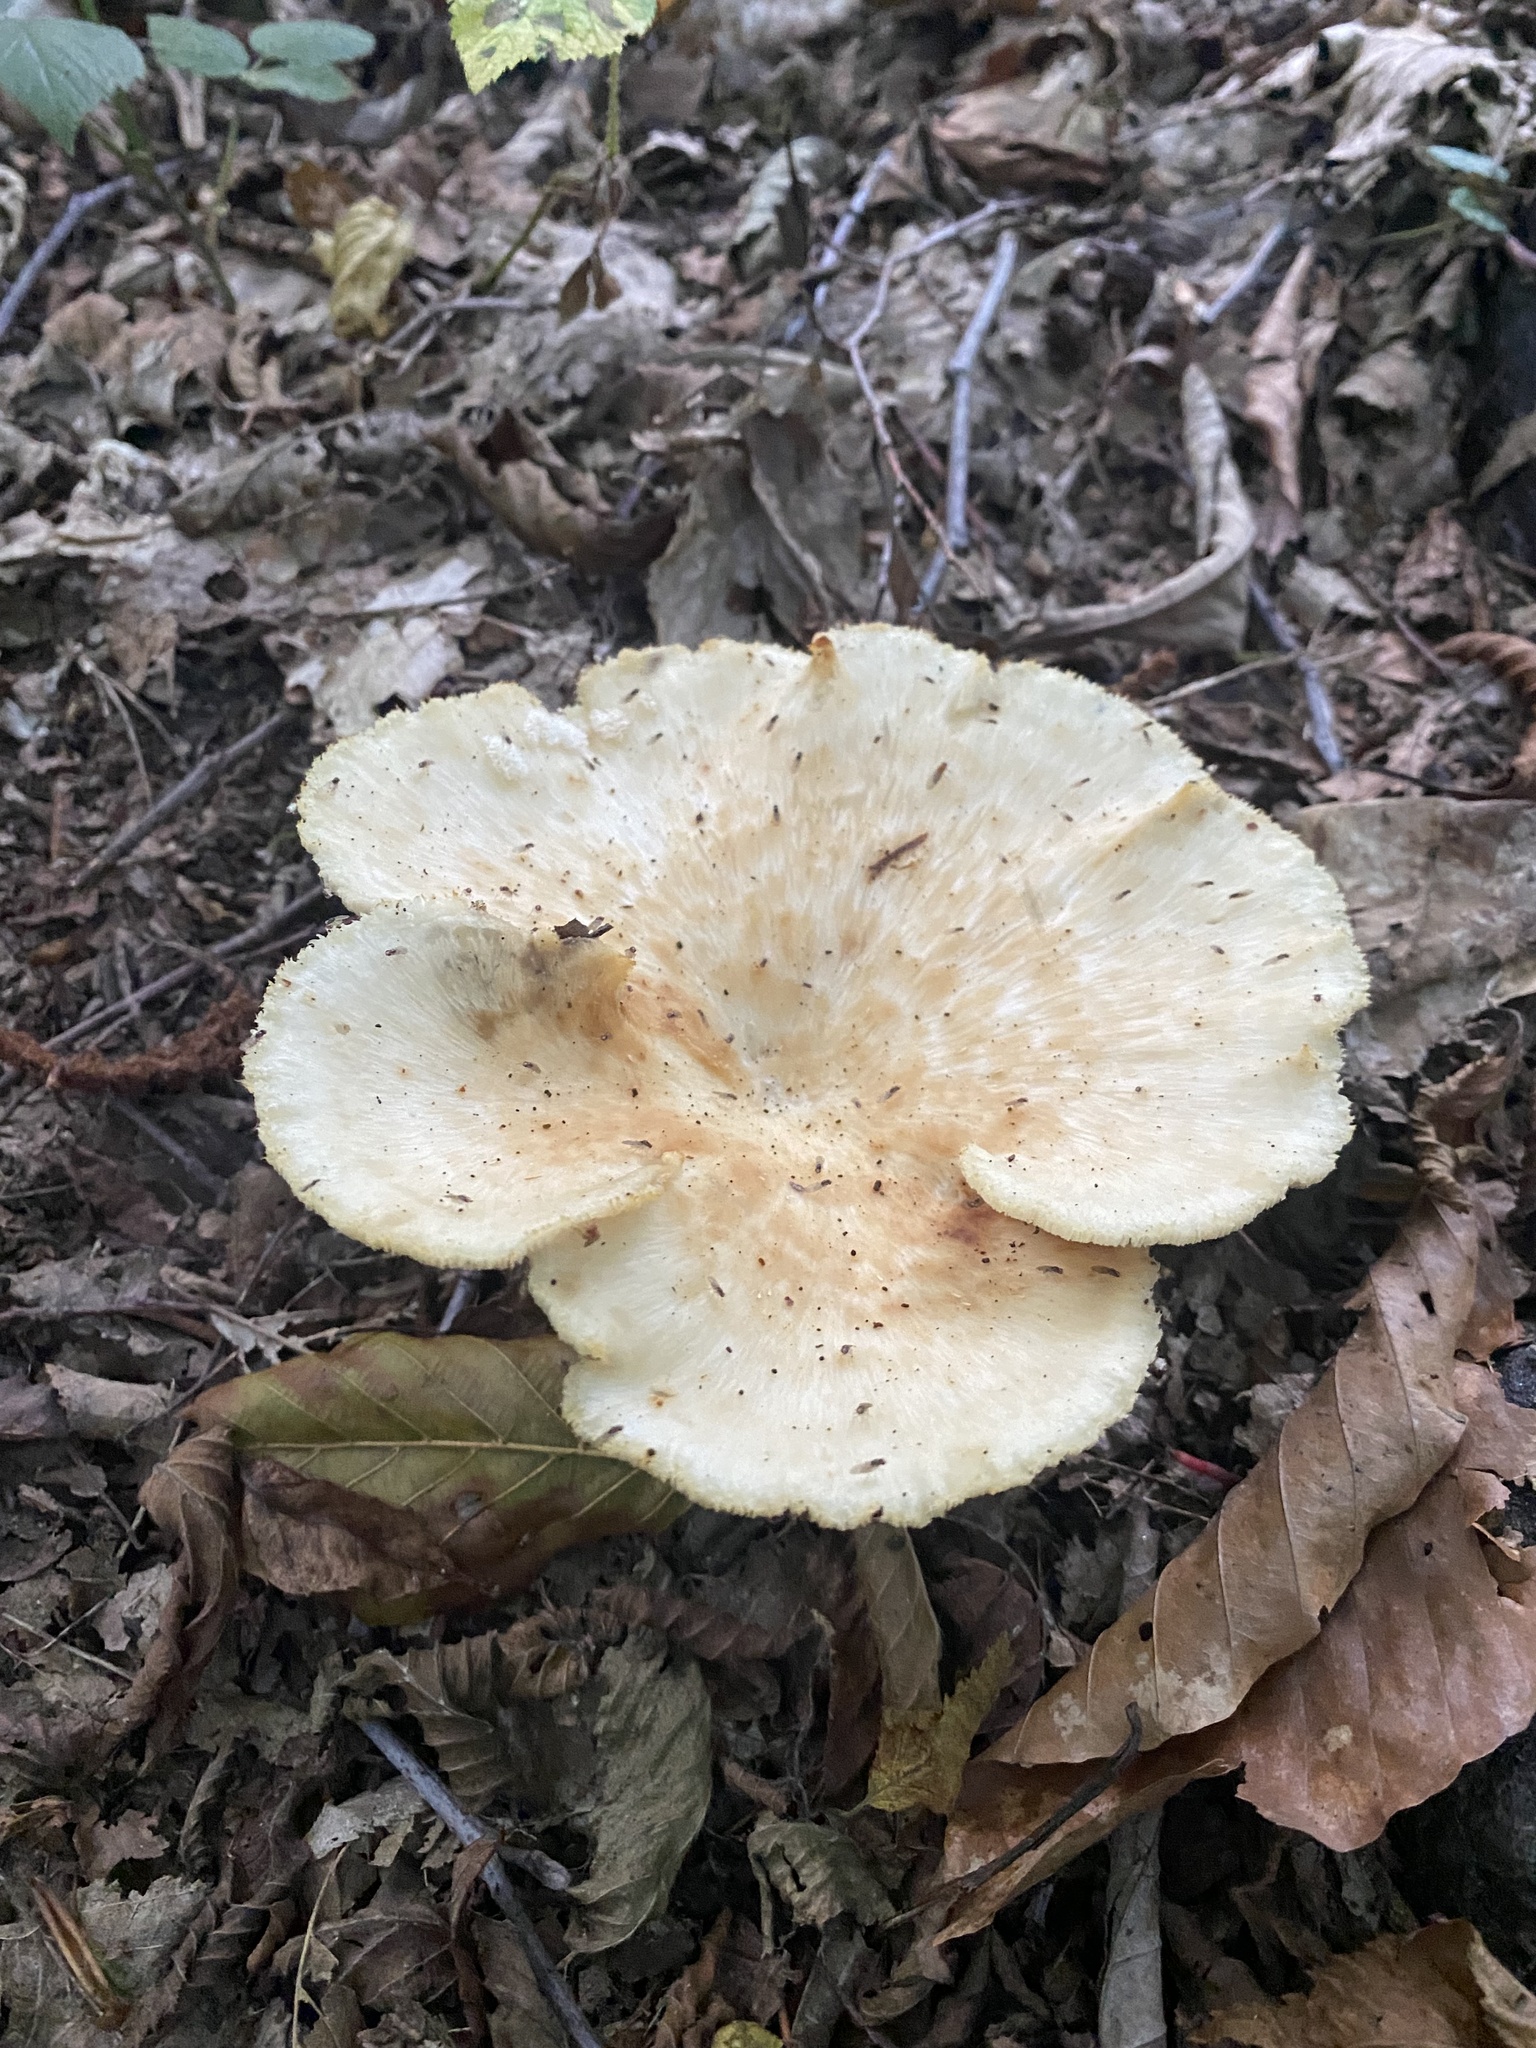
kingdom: Fungi
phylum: Basidiomycota
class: Agaricomycetes
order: Polyporales
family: Polyporaceae
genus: Cerioporus
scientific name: Cerioporus squamosus
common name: Dryad's saddle
